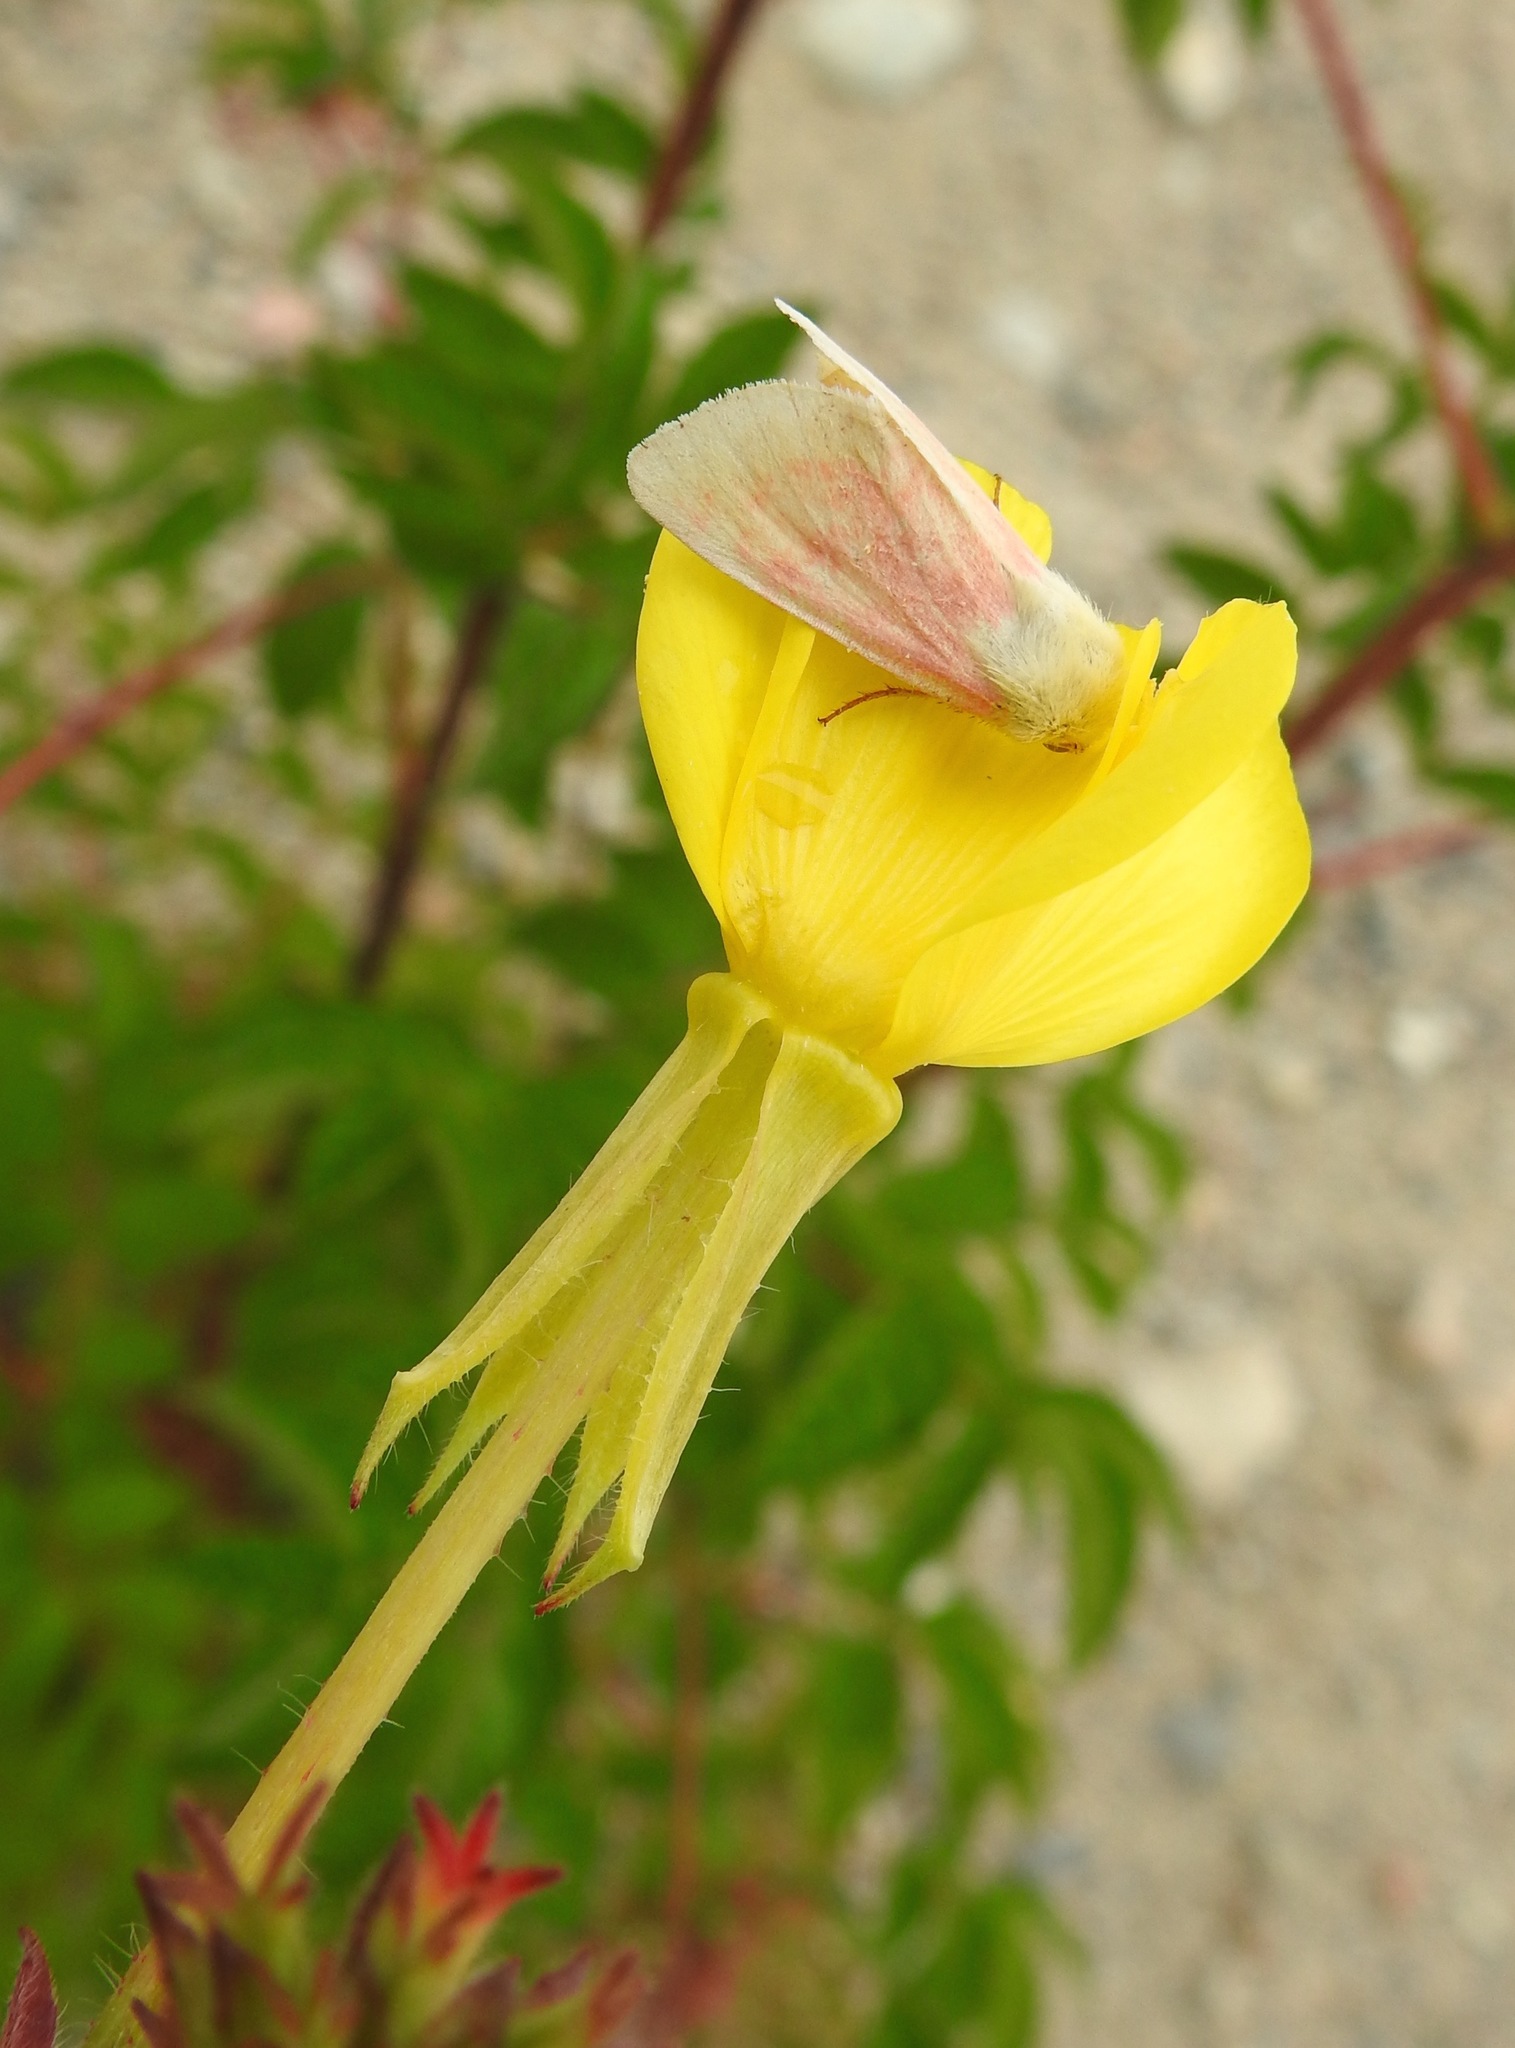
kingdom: Animalia
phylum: Arthropoda
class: Insecta
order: Lepidoptera
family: Noctuidae
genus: Schinia
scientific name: Schinia florida
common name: Primrose moth
